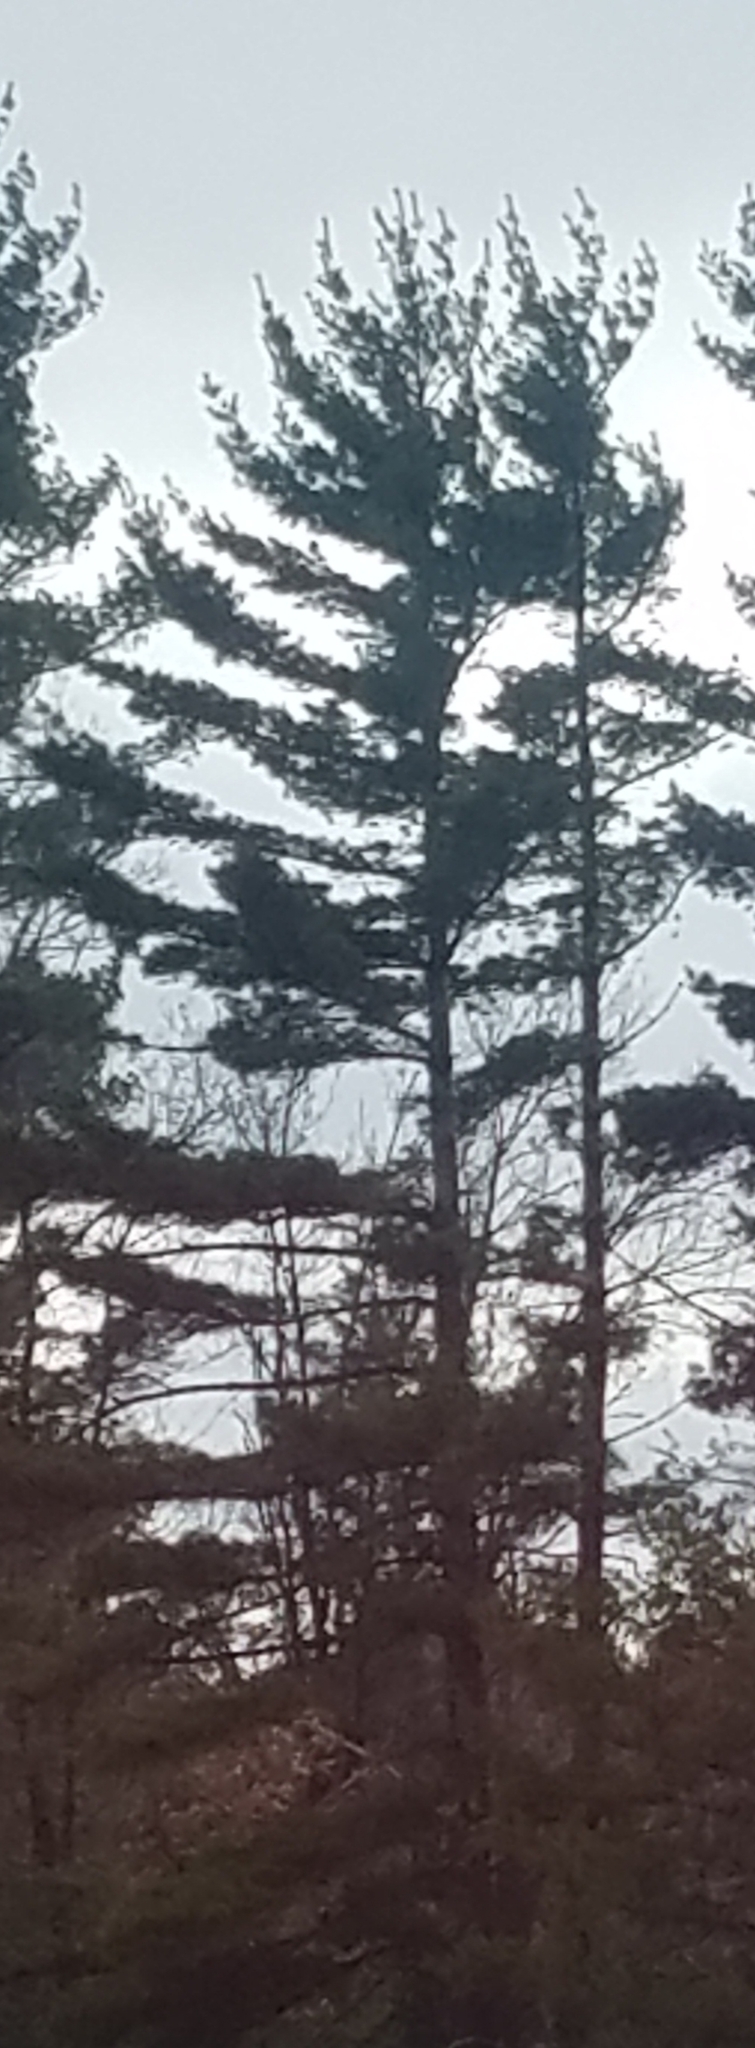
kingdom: Plantae
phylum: Tracheophyta
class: Pinopsida
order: Pinales
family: Pinaceae
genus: Pinus
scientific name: Pinus strobus
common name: Weymouth pine
